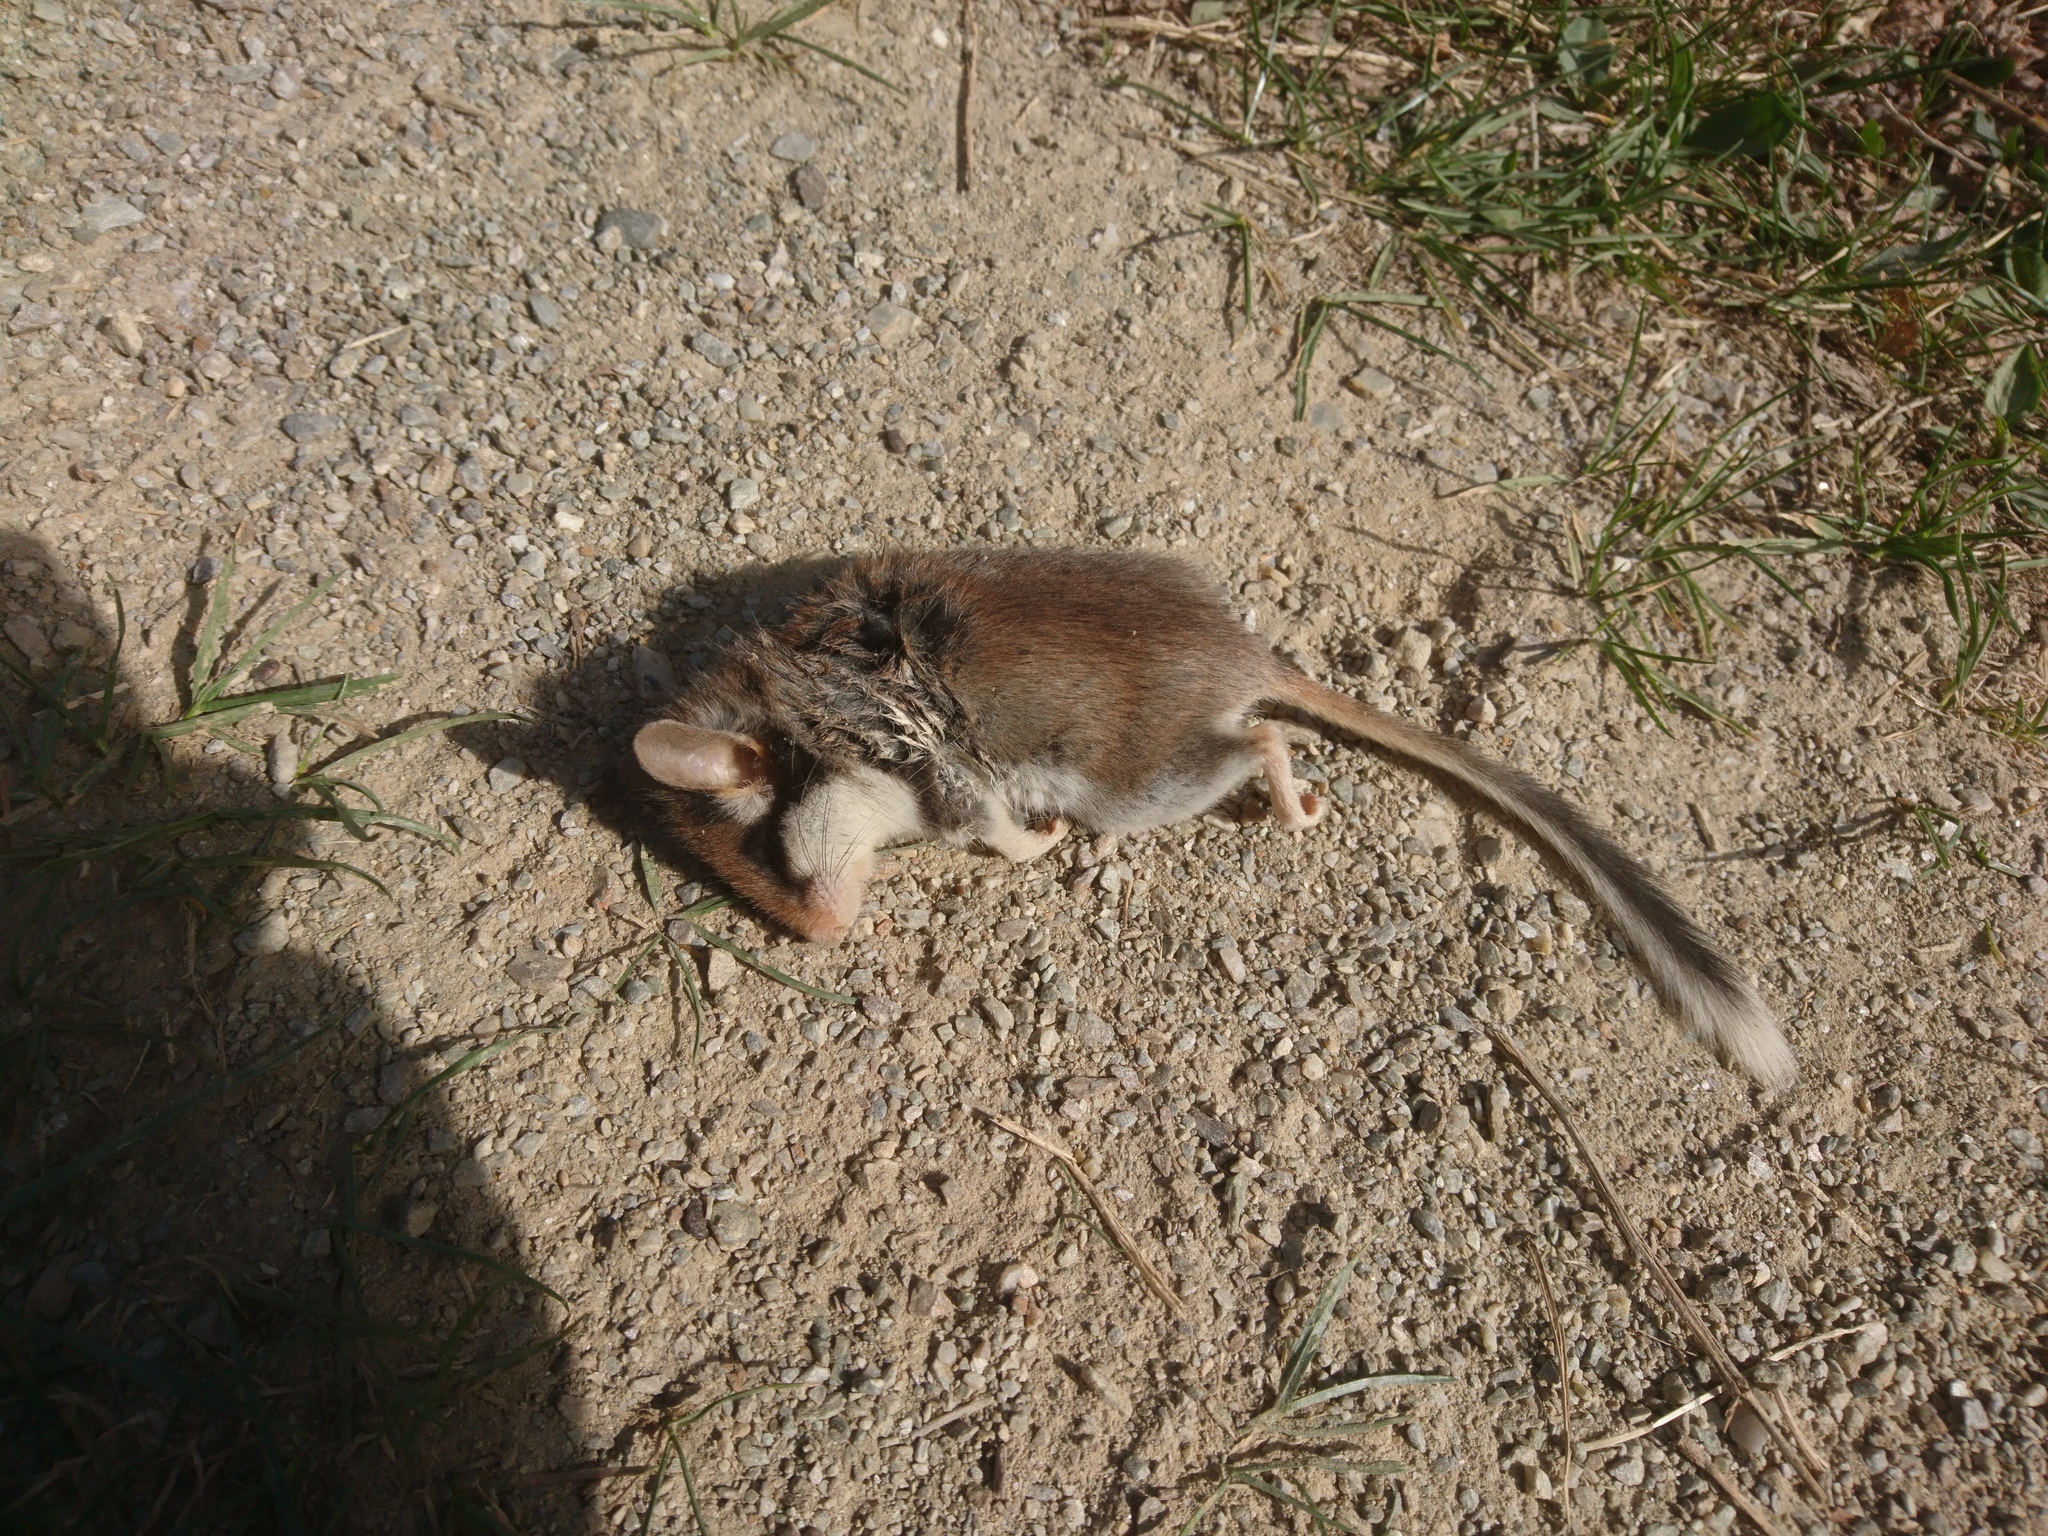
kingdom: Animalia
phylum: Chordata
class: Mammalia
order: Rodentia
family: Gliridae
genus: Eliomys
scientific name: Eliomys quercinus
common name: Garden dormouse
